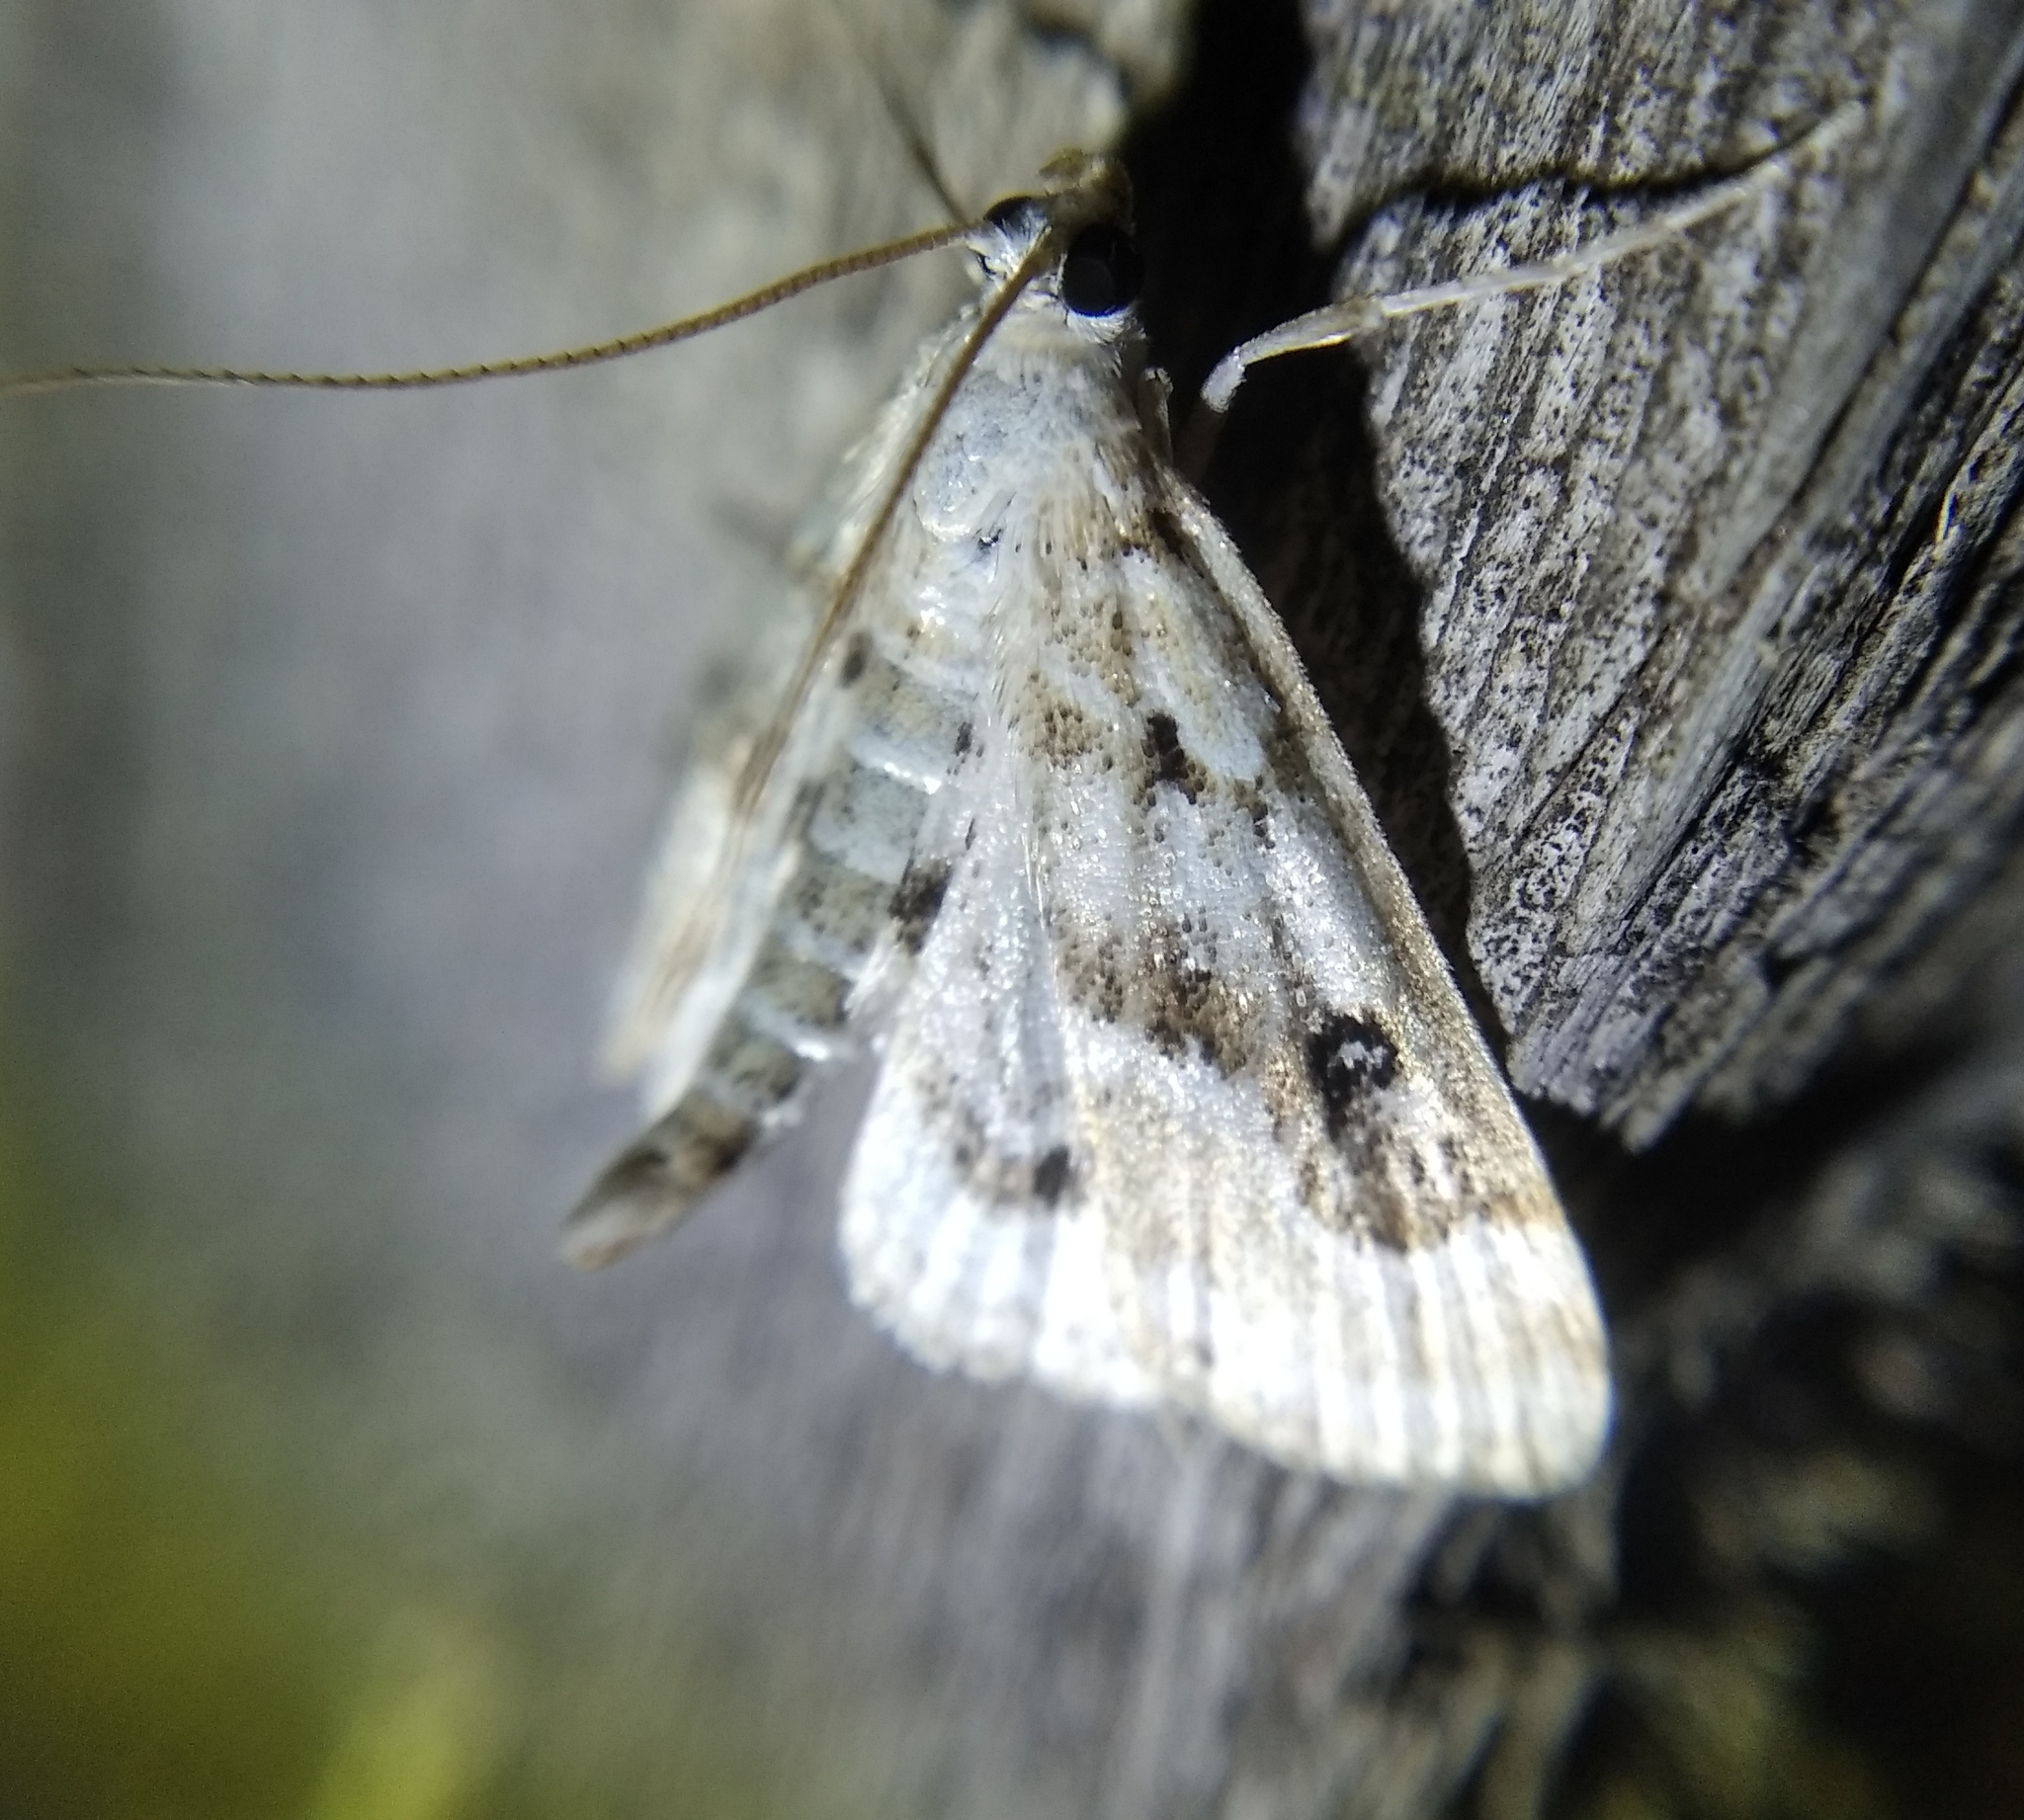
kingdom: Animalia
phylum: Arthropoda
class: Insecta
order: Lepidoptera
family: Crambidae
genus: Parapoynx
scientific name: Parapoynx stratiotata
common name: Ringed china-mark
